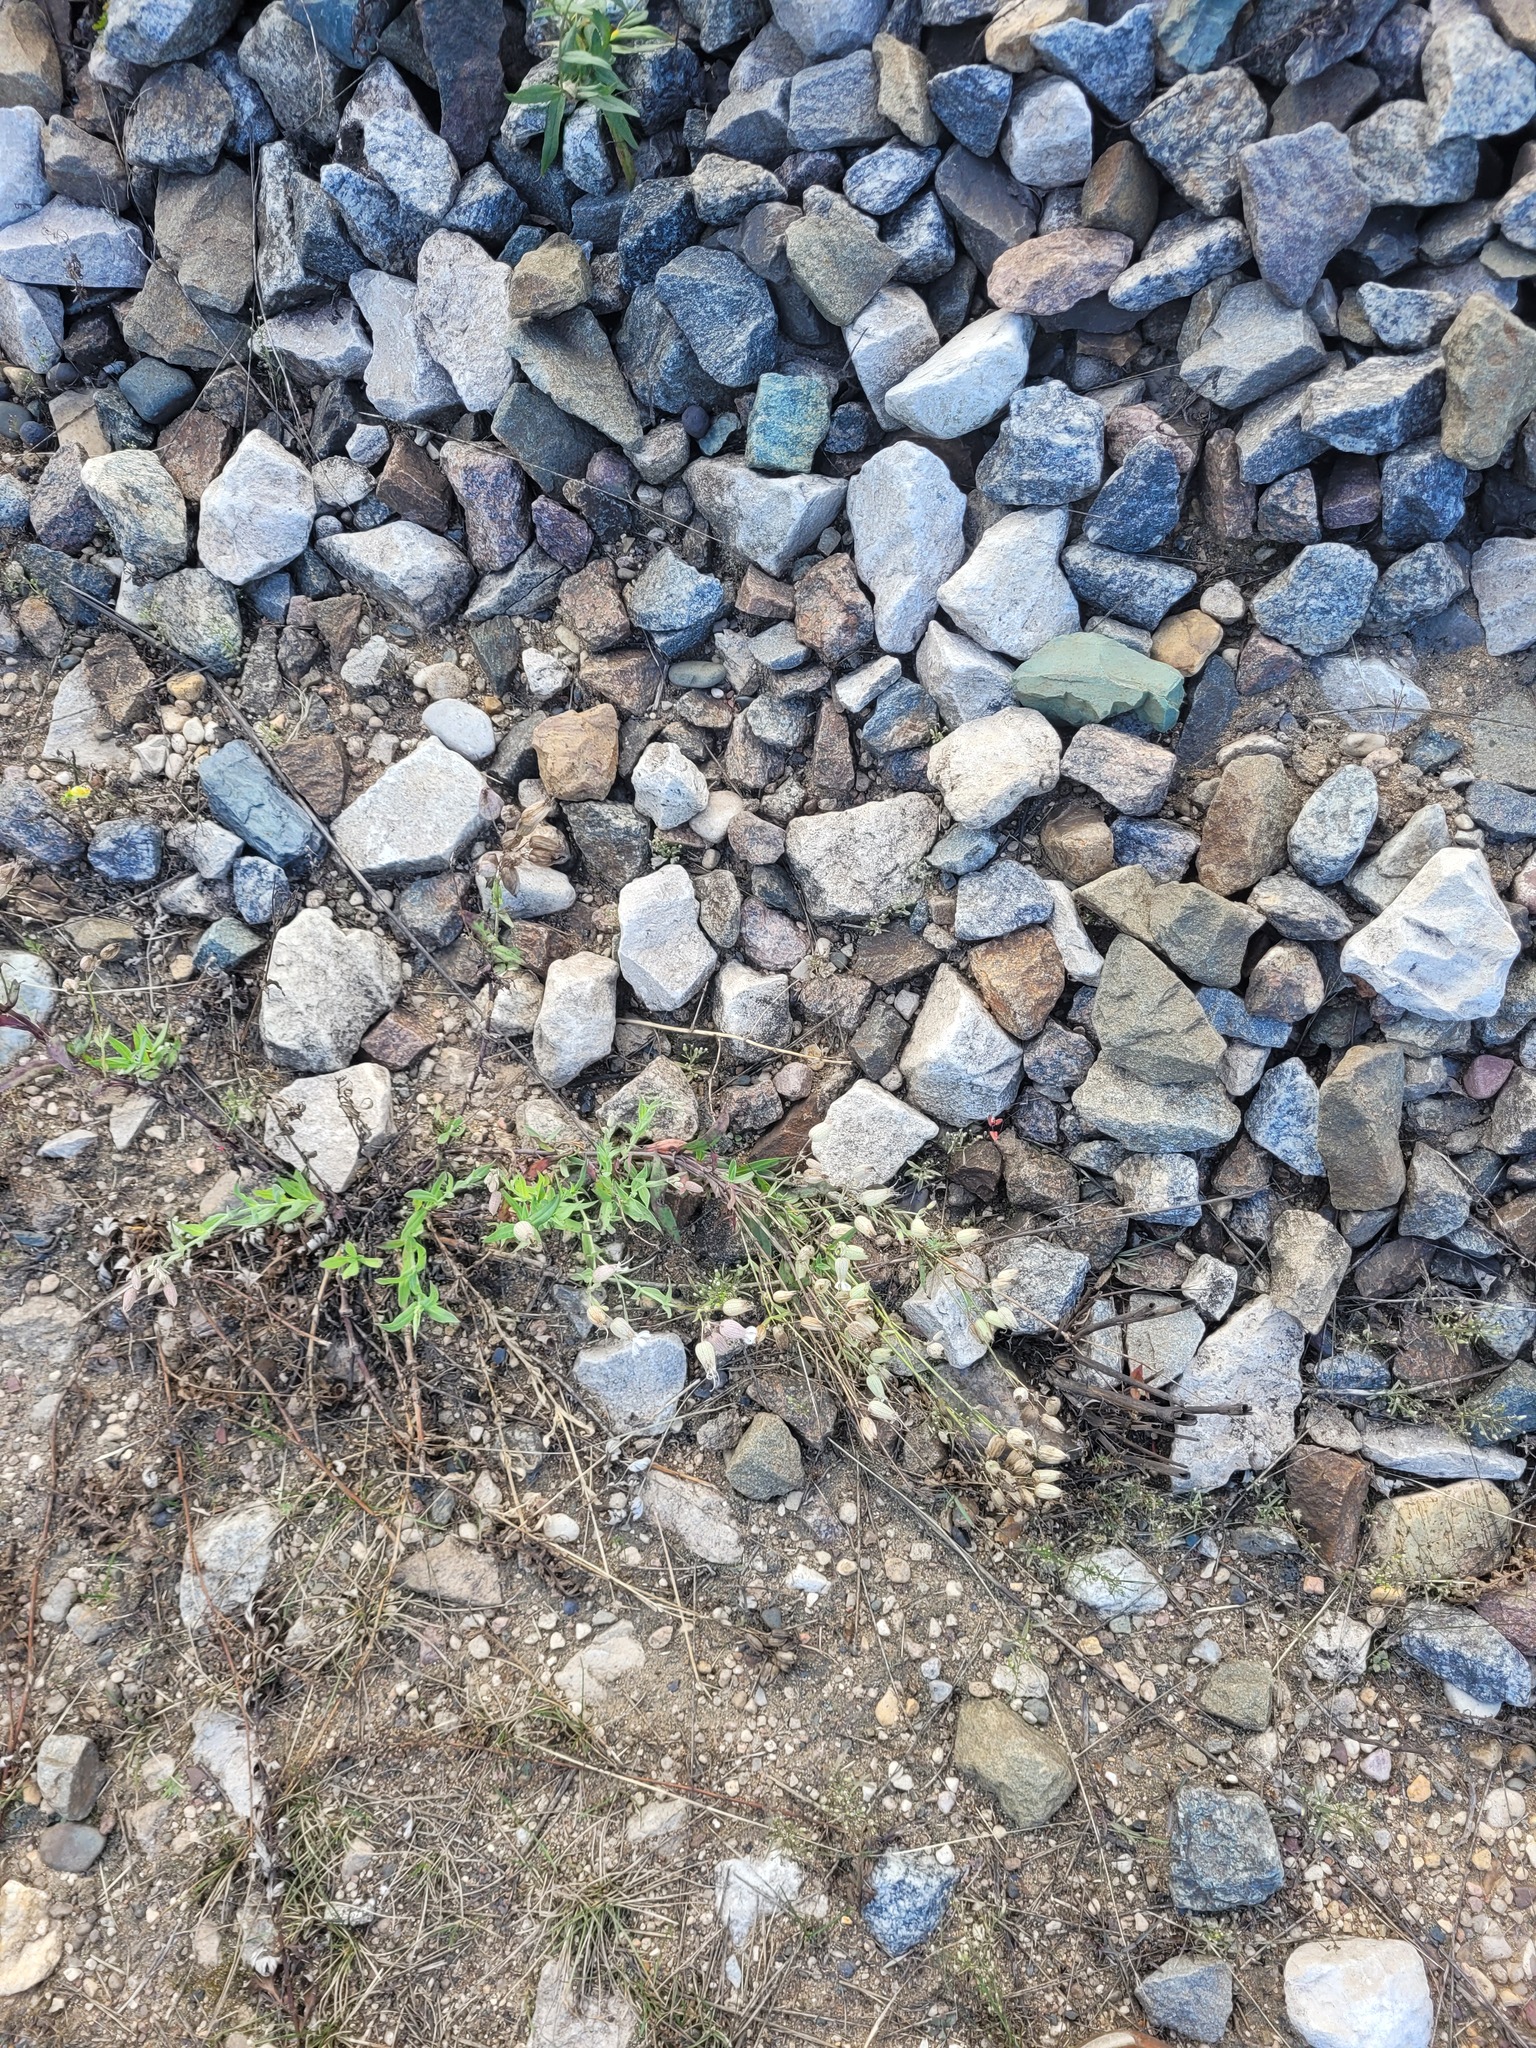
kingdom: Plantae
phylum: Tracheophyta
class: Magnoliopsida
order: Caryophyllales
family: Caryophyllaceae
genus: Silene
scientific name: Silene vulgaris
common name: Bladder campion
